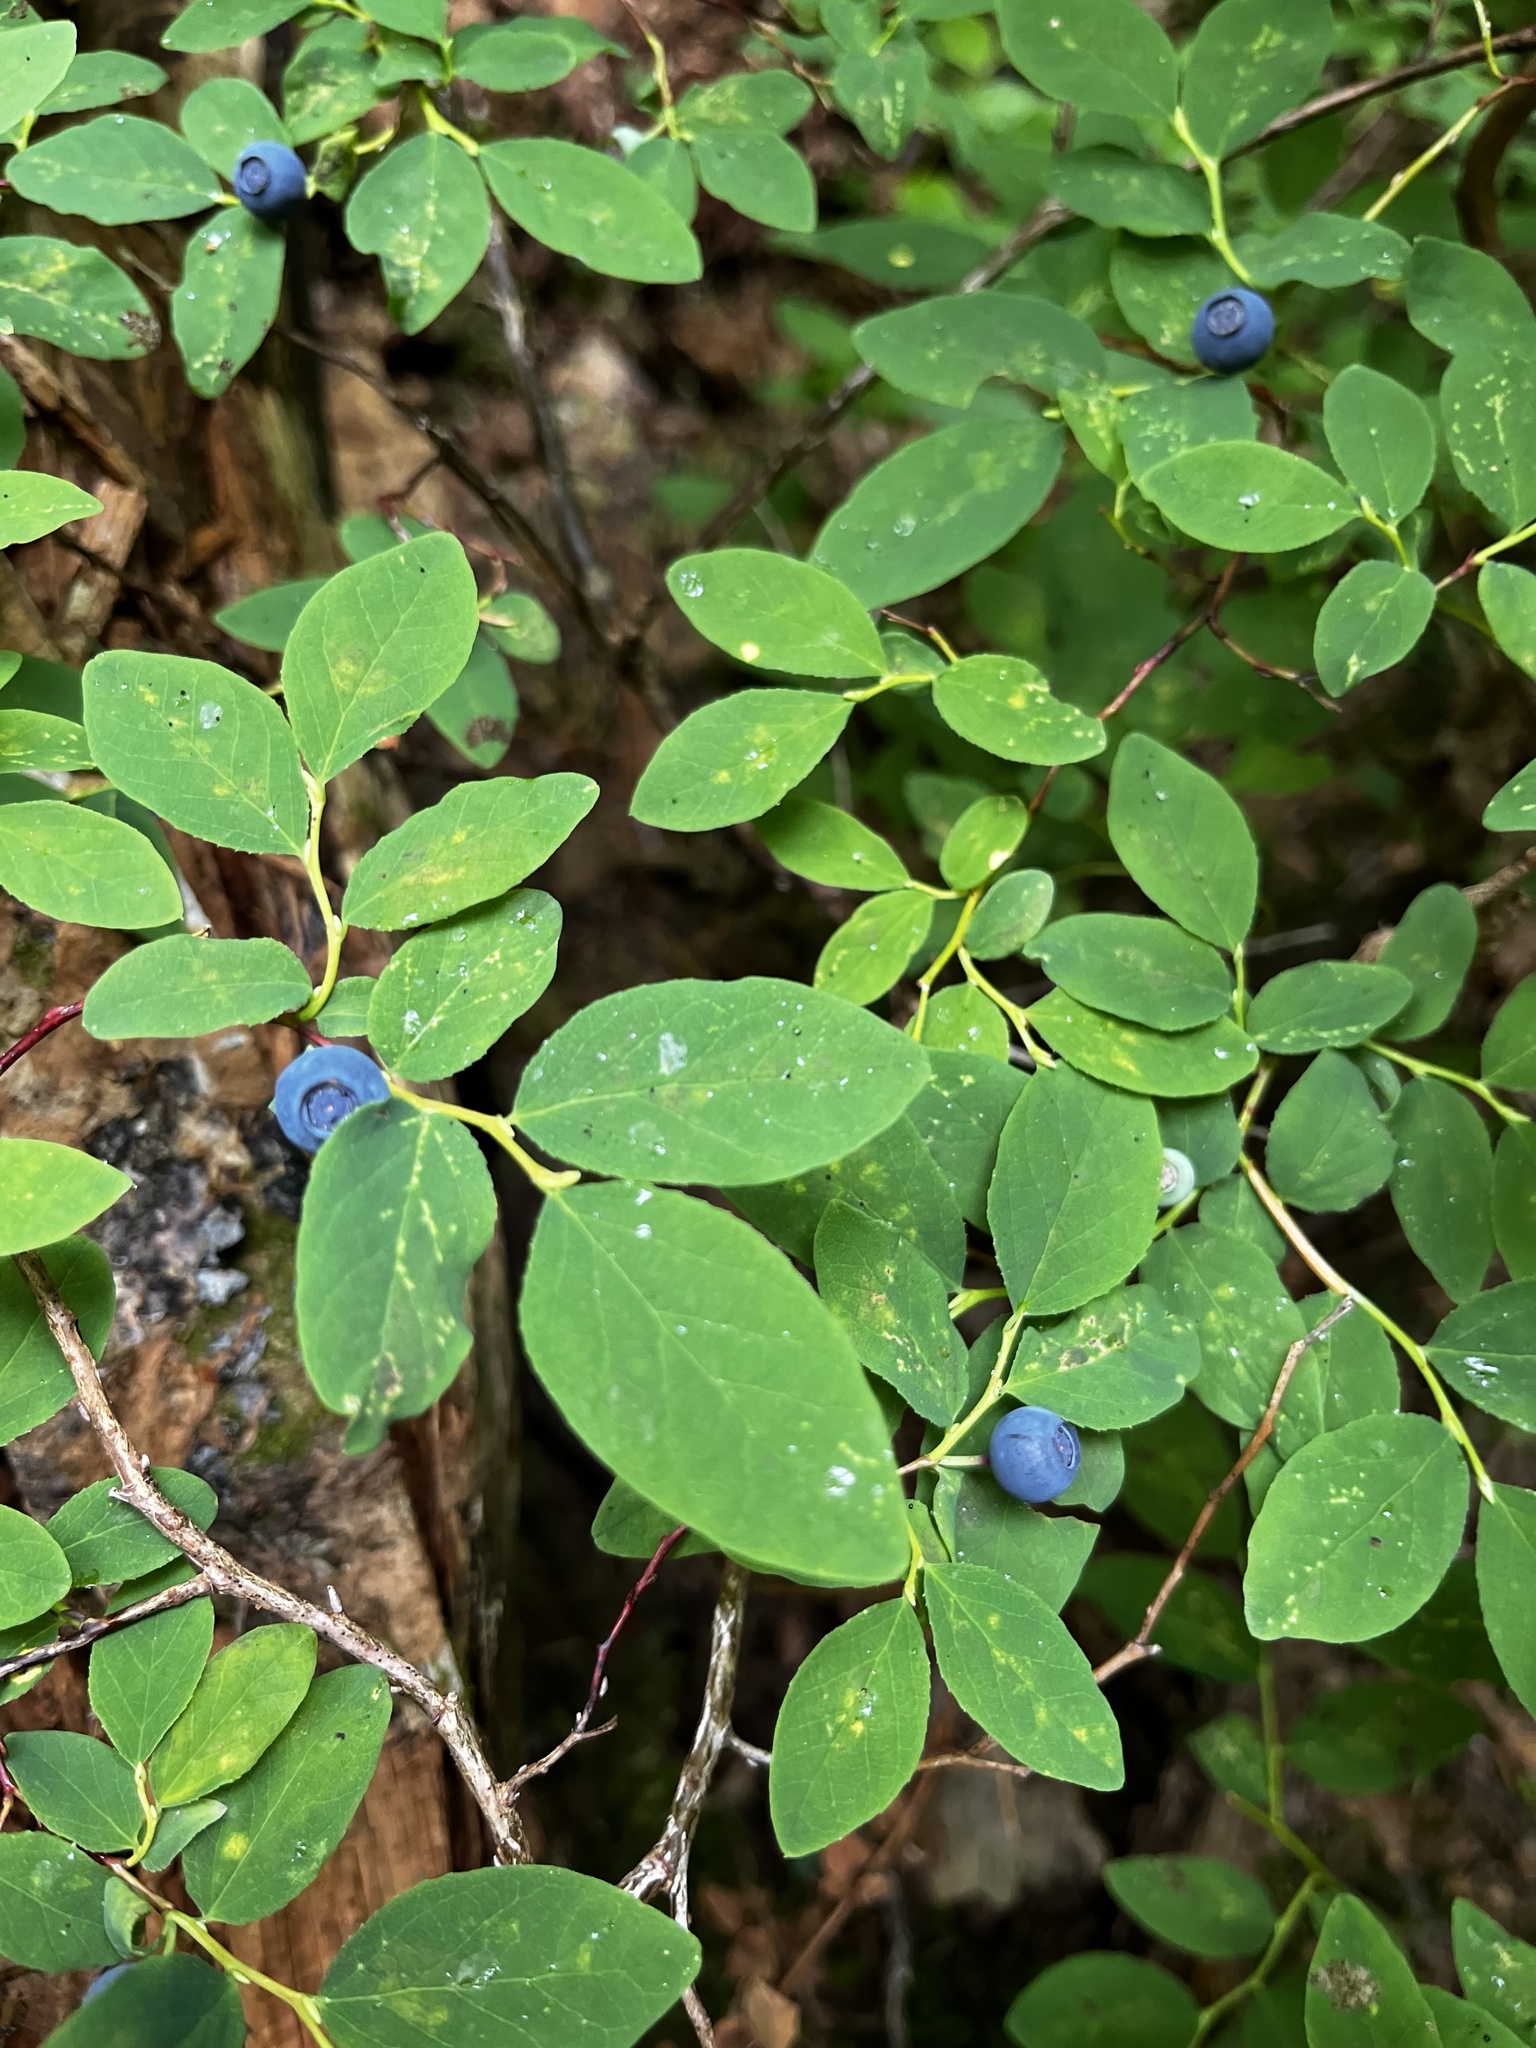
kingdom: Plantae
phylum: Tracheophyta
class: Magnoliopsida
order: Ericales
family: Ericaceae
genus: Vaccinium
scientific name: Vaccinium ovalifolium
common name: Early blueberry
